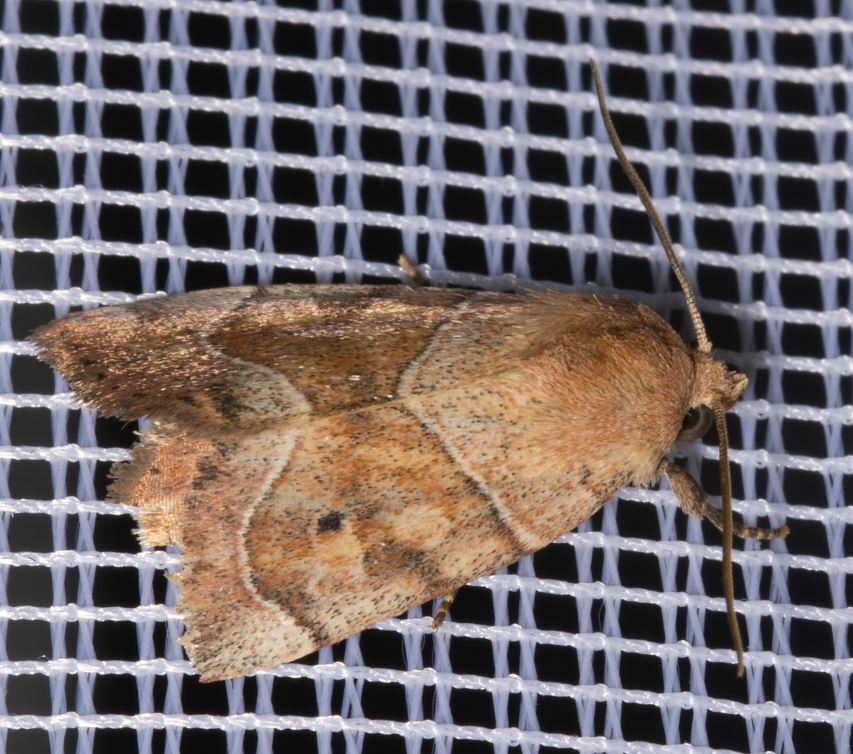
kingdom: Animalia
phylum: Arthropoda
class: Insecta
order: Lepidoptera
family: Noctuidae
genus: Cosmia
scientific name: Cosmia trapezina
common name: Dun-bar
